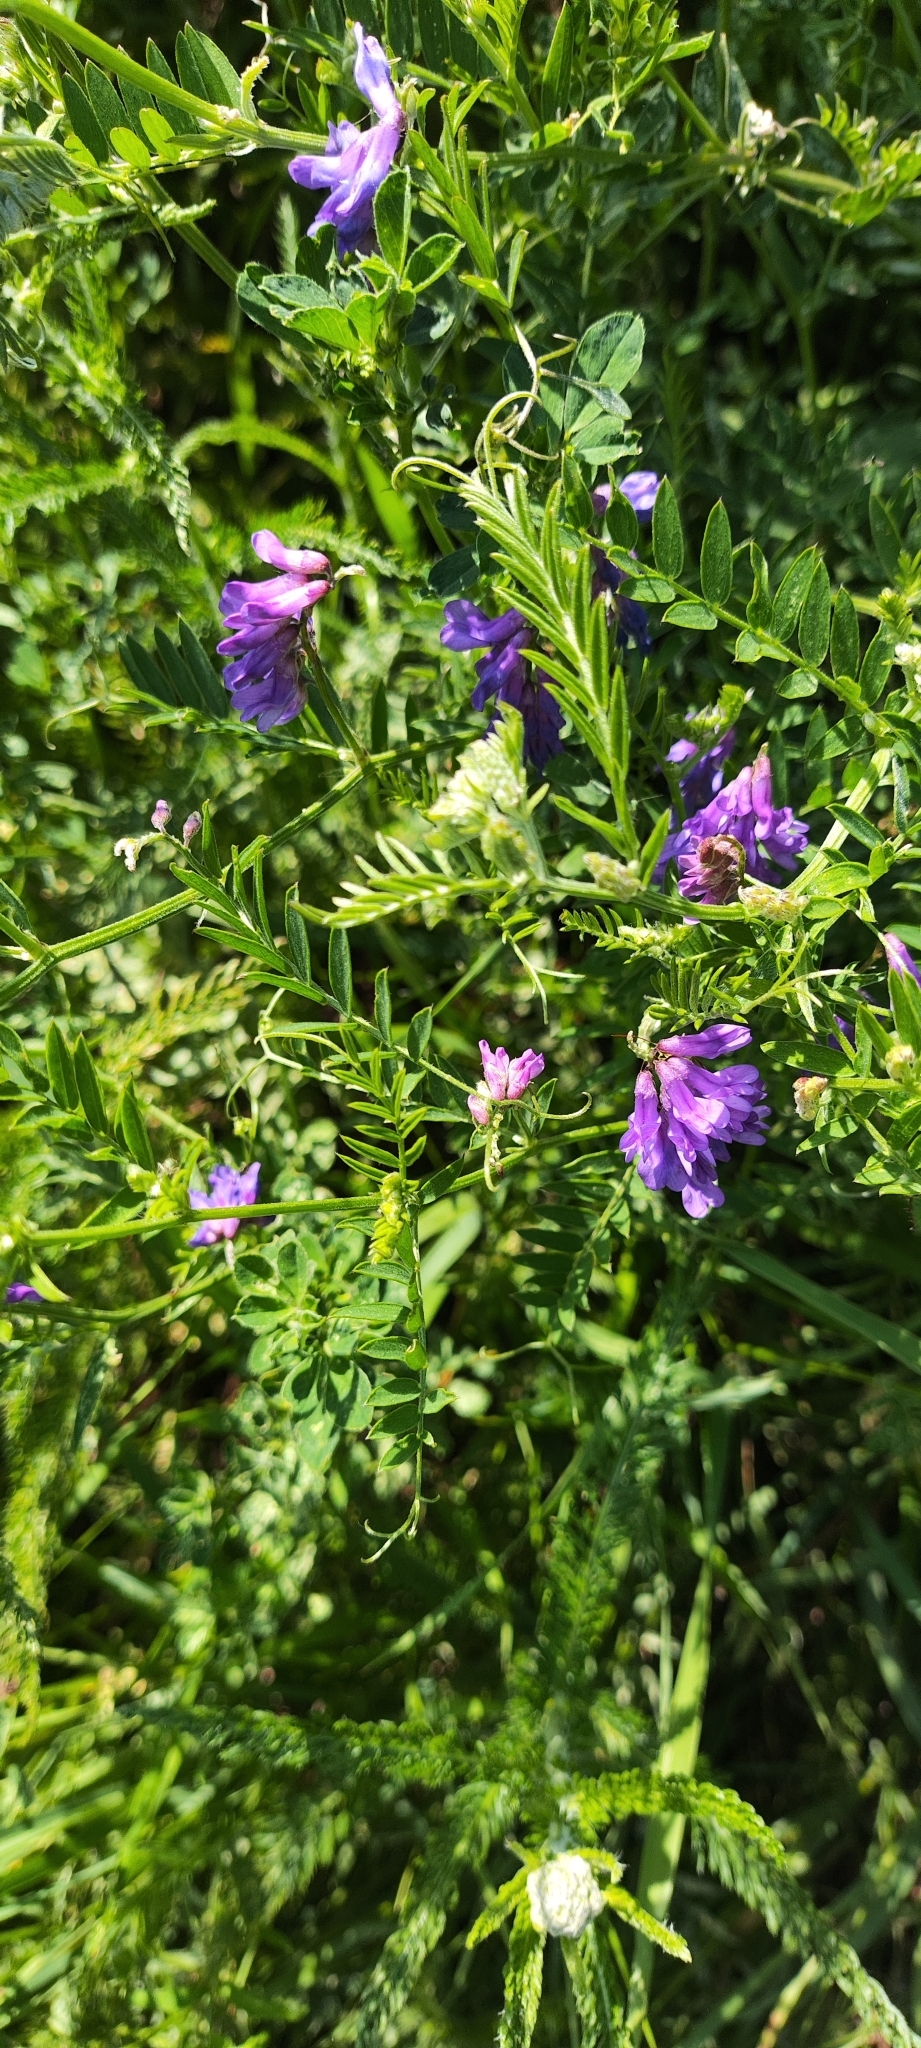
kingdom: Plantae
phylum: Tracheophyta
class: Magnoliopsida
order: Fabales
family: Fabaceae
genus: Vicia
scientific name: Vicia cracca
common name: Bird vetch
